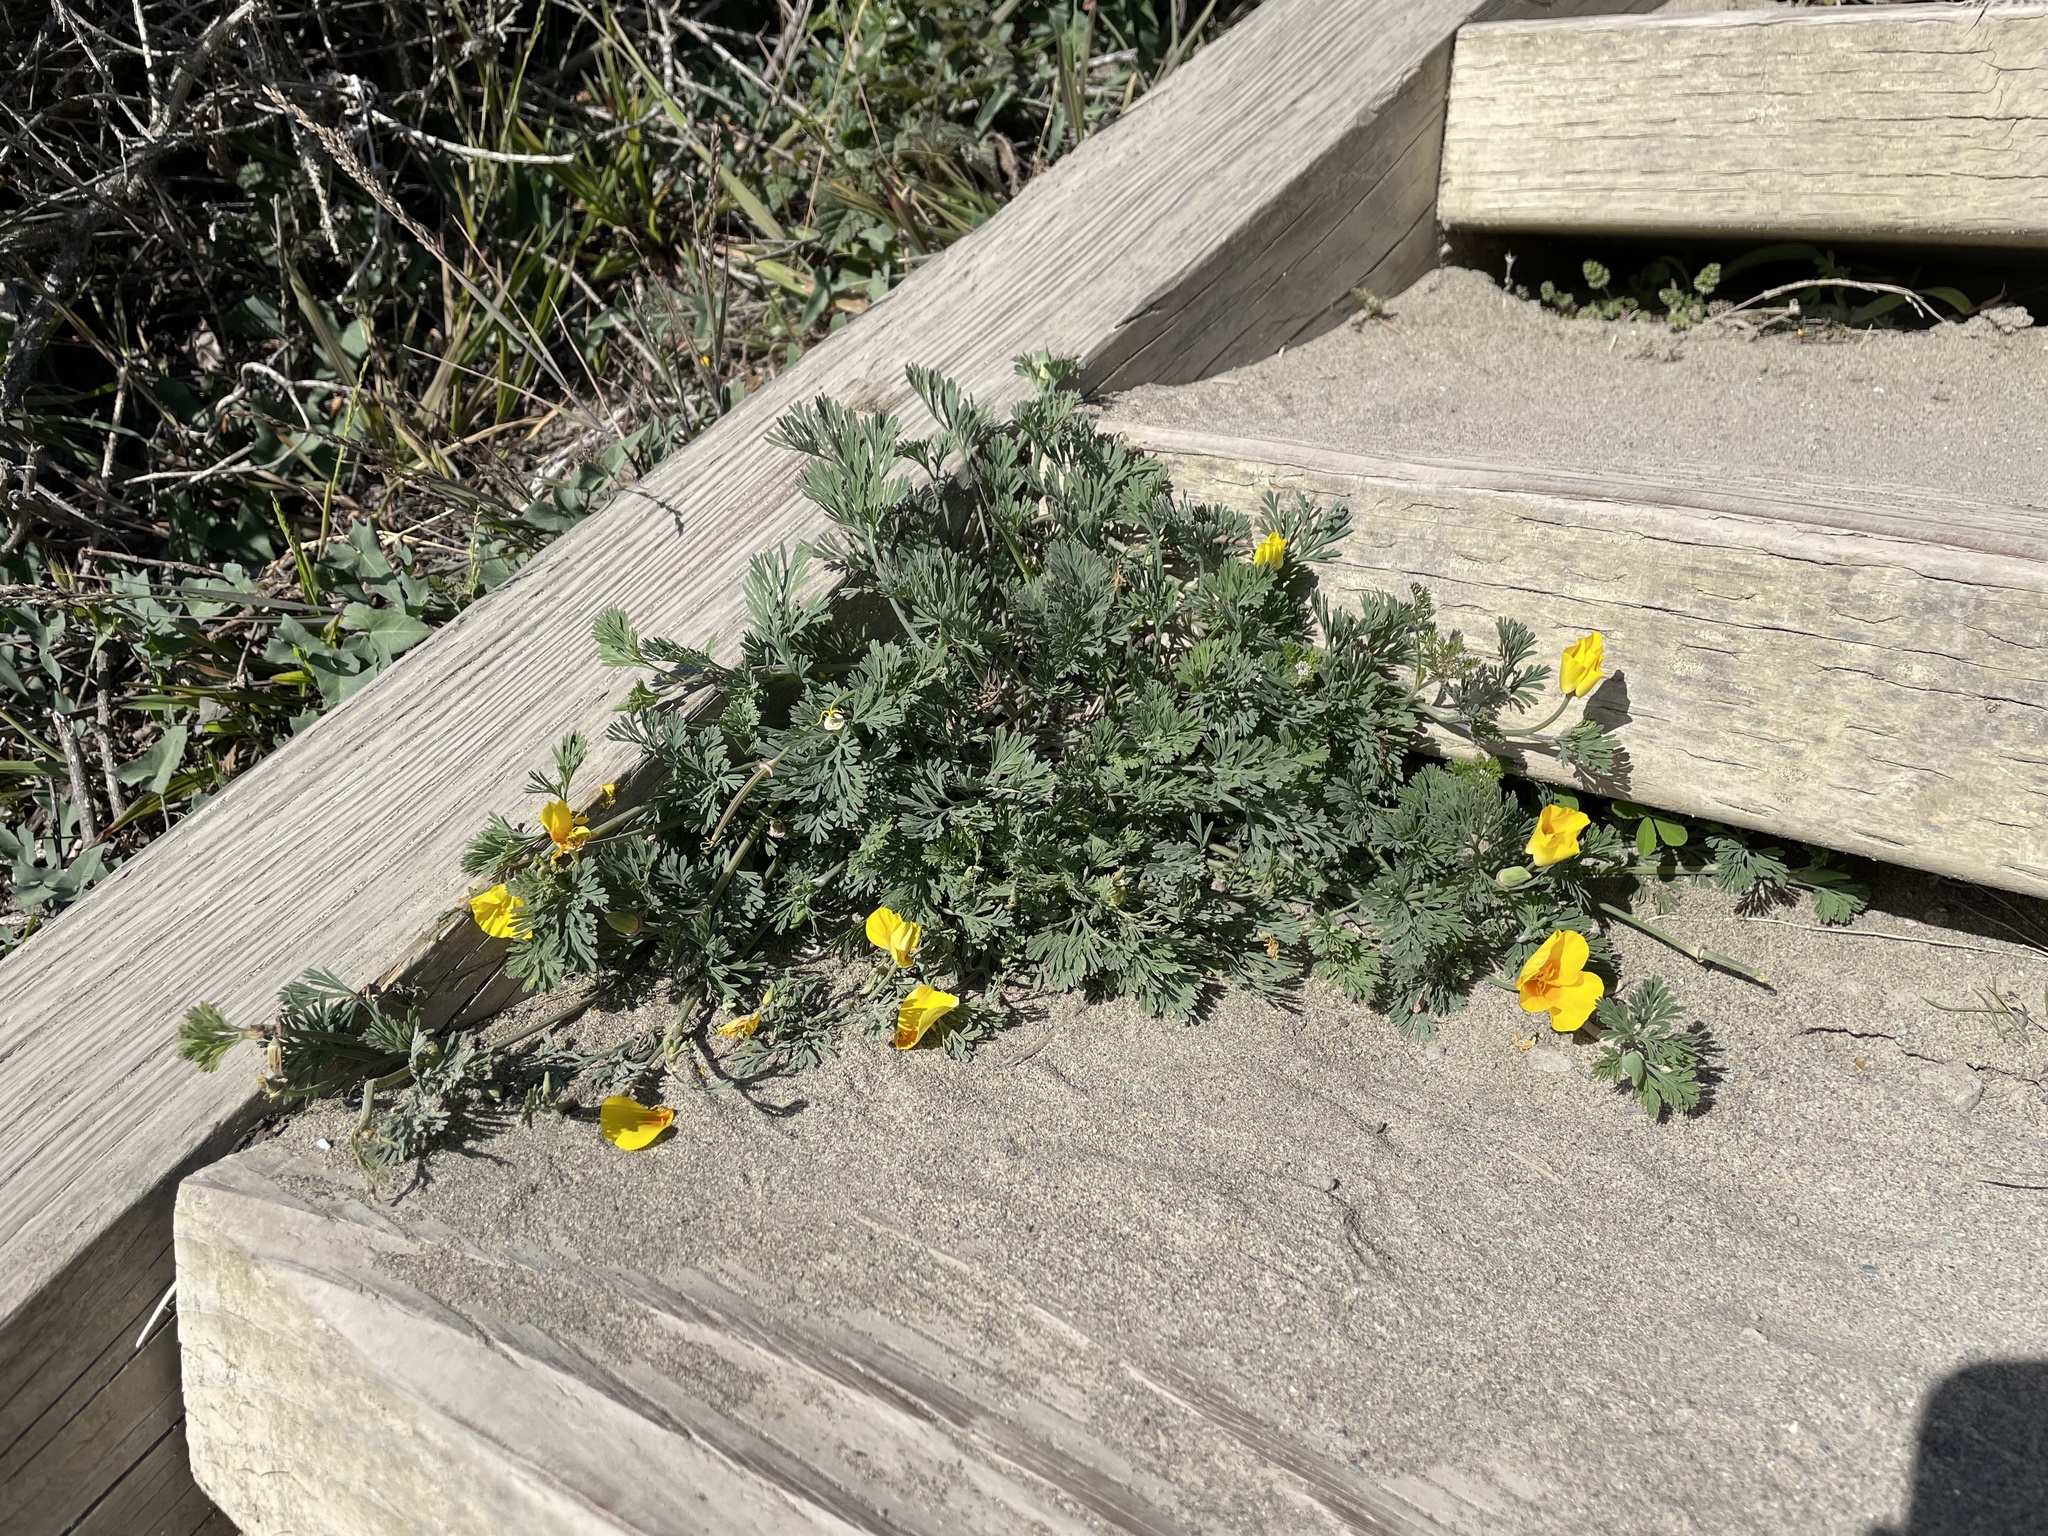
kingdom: Plantae
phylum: Tracheophyta
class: Magnoliopsida
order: Ranunculales
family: Papaveraceae
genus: Eschscholzia
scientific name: Eschscholzia californica
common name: California poppy
